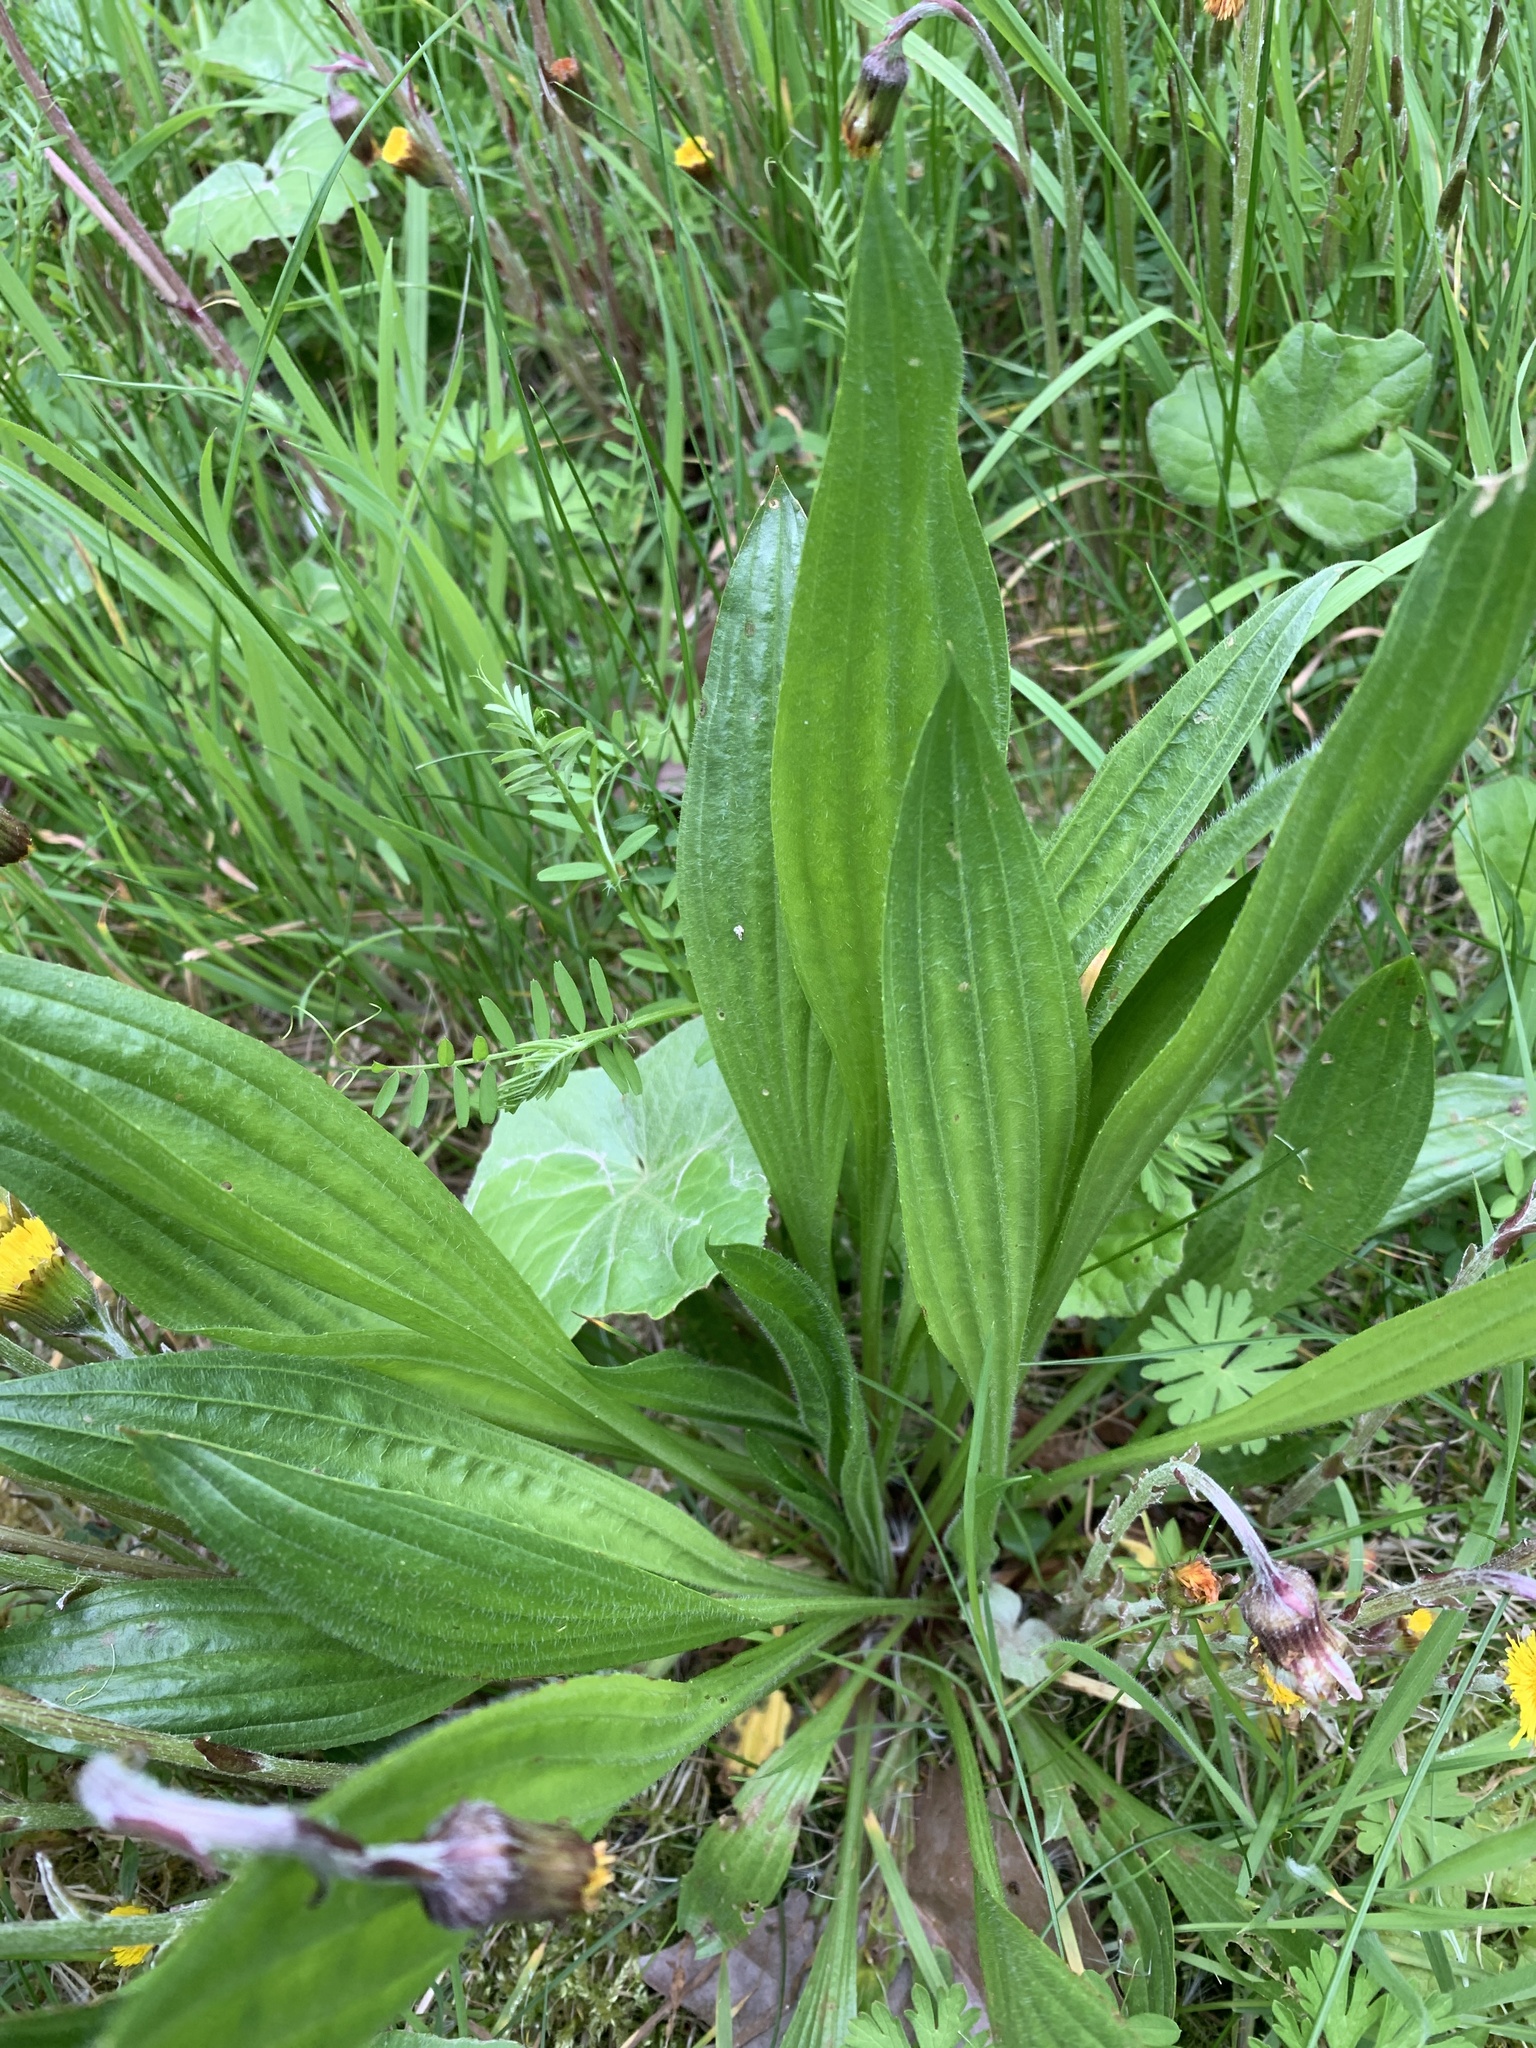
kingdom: Plantae
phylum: Tracheophyta
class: Magnoliopsida
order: Lamiales
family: Plantaginaceae
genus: Plantago
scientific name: Plantago lanceolata
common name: Ribwort plantain
